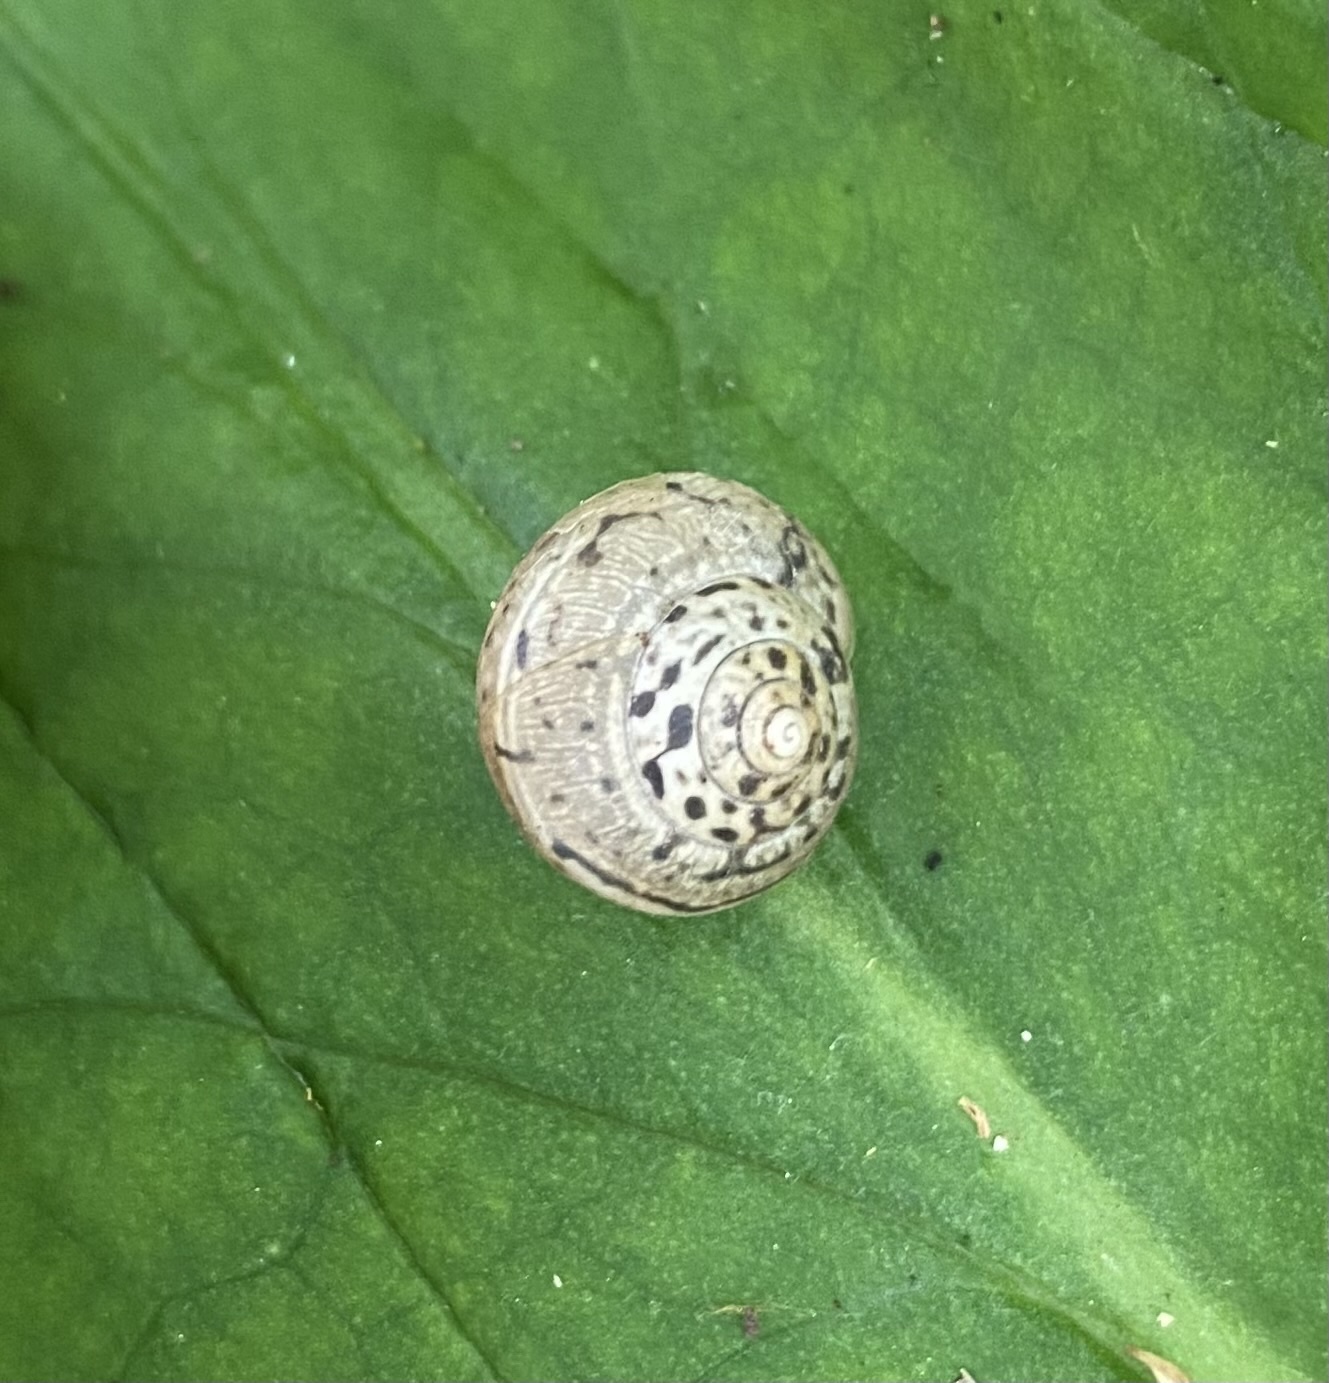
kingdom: Animalia
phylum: Mollusca
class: Gastropoda
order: Stylommatophora
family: Hygromiidae
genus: Monacha
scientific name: Monacha kuznetsovi
